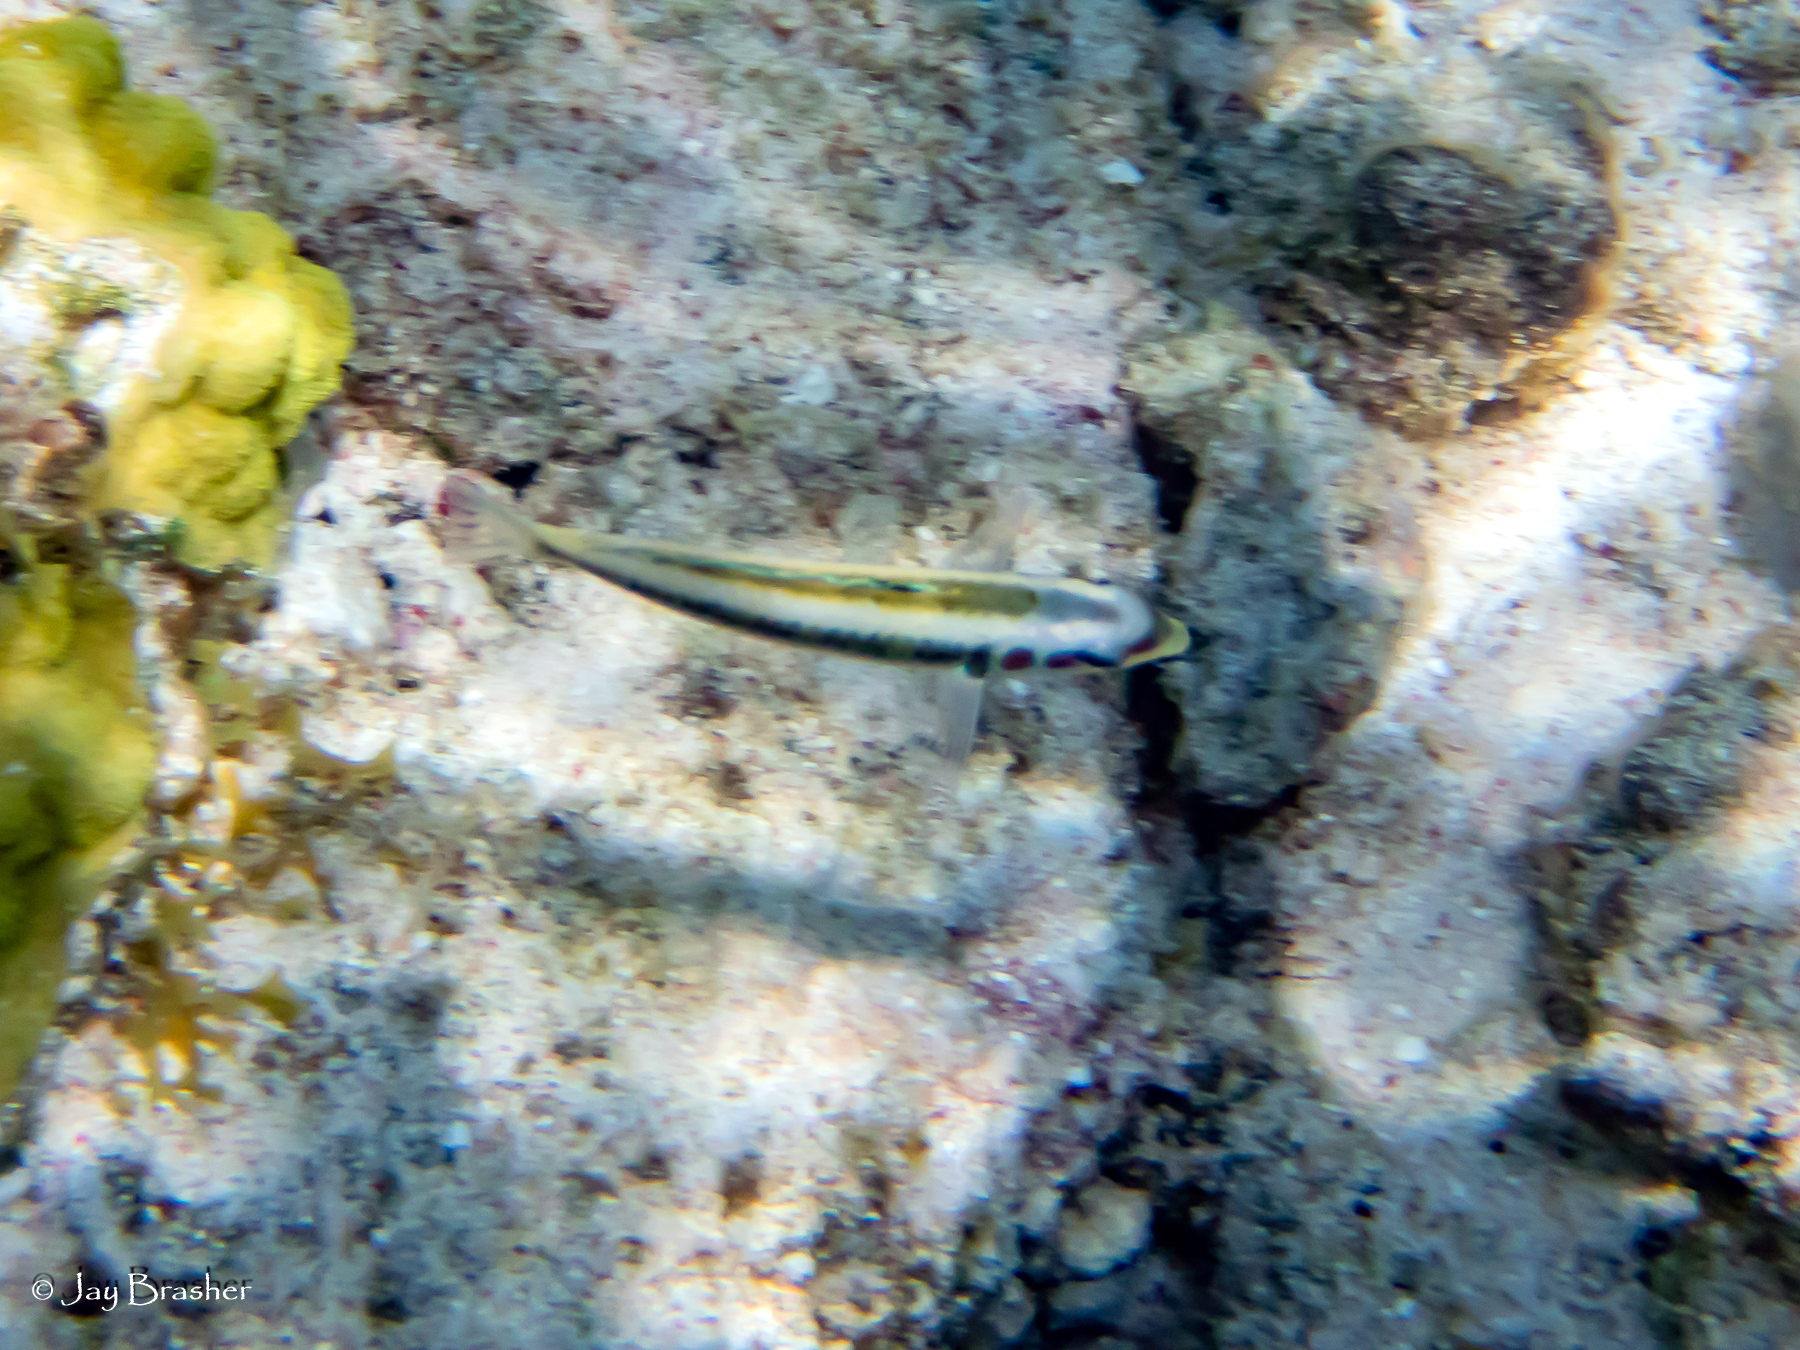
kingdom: Animalia
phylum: Chordata
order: Perciformes
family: Labridae
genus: Thalassoma
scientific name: Thalassoma bifasciatum
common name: Bluehead wrasse
